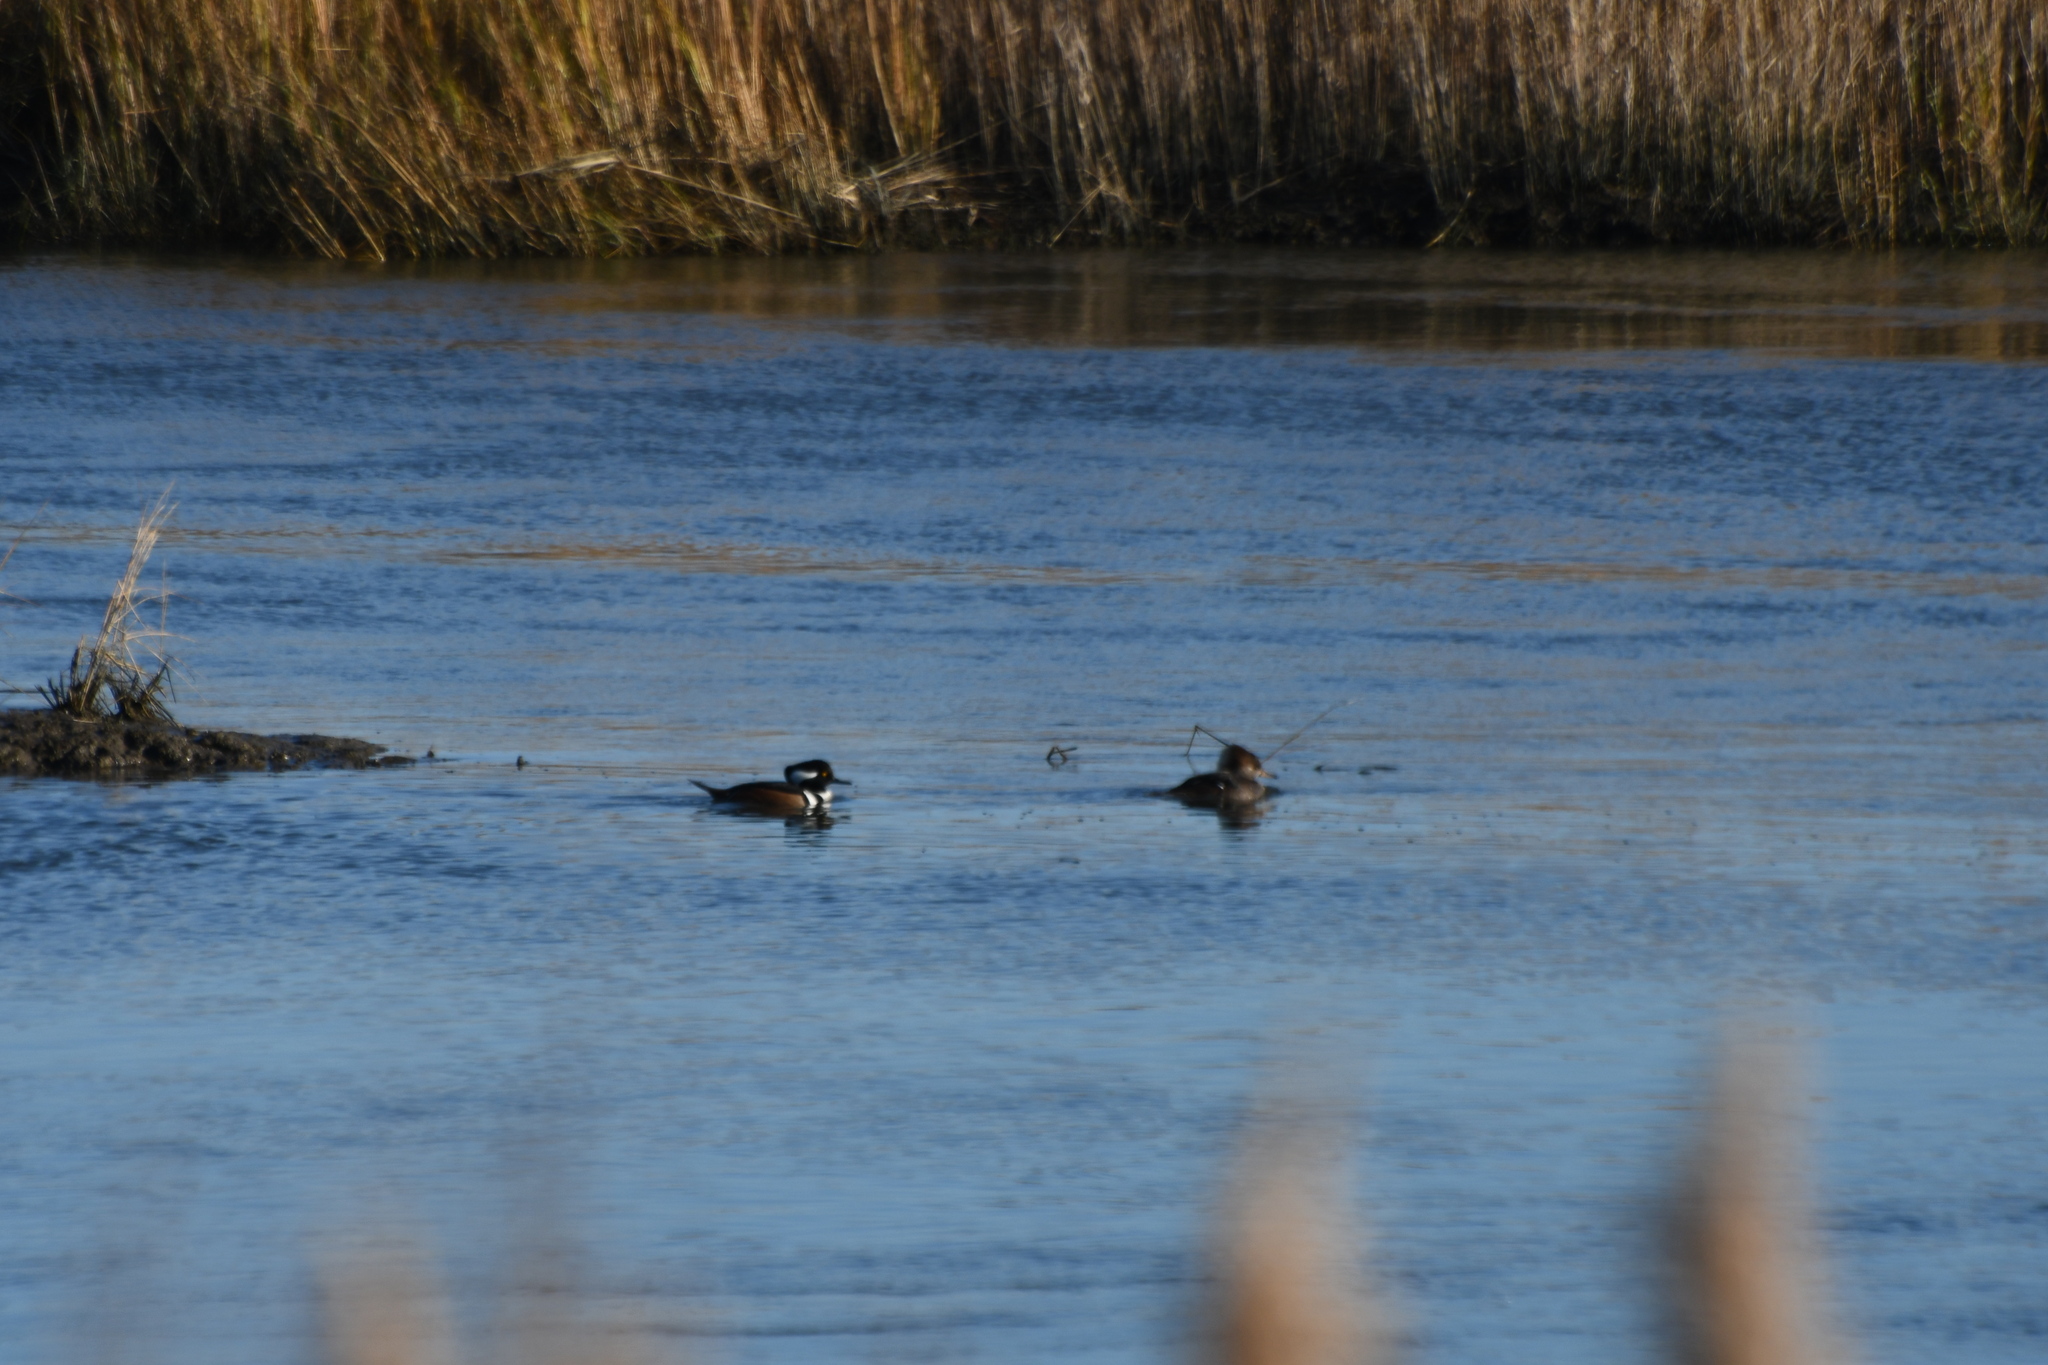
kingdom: Animalia
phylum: Chordata
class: Aves
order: Anseriformes
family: Anatidae
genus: Lophodytes
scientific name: Lophodytes cucullatus
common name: Hooded merganser
